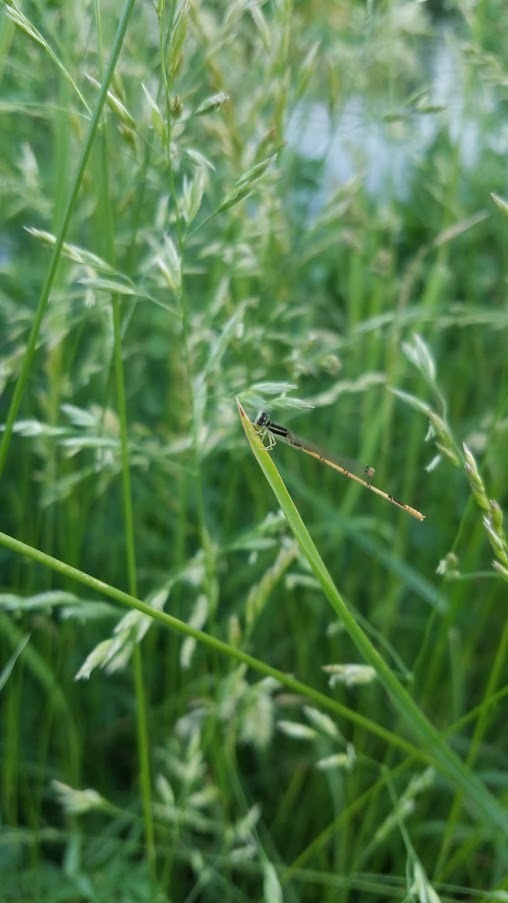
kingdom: Animalia
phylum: Arthropoda
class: Insecta
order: Odonata
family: Coenagrionidae
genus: Ischnura
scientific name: Ischnura hastata
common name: Citrine forktail
